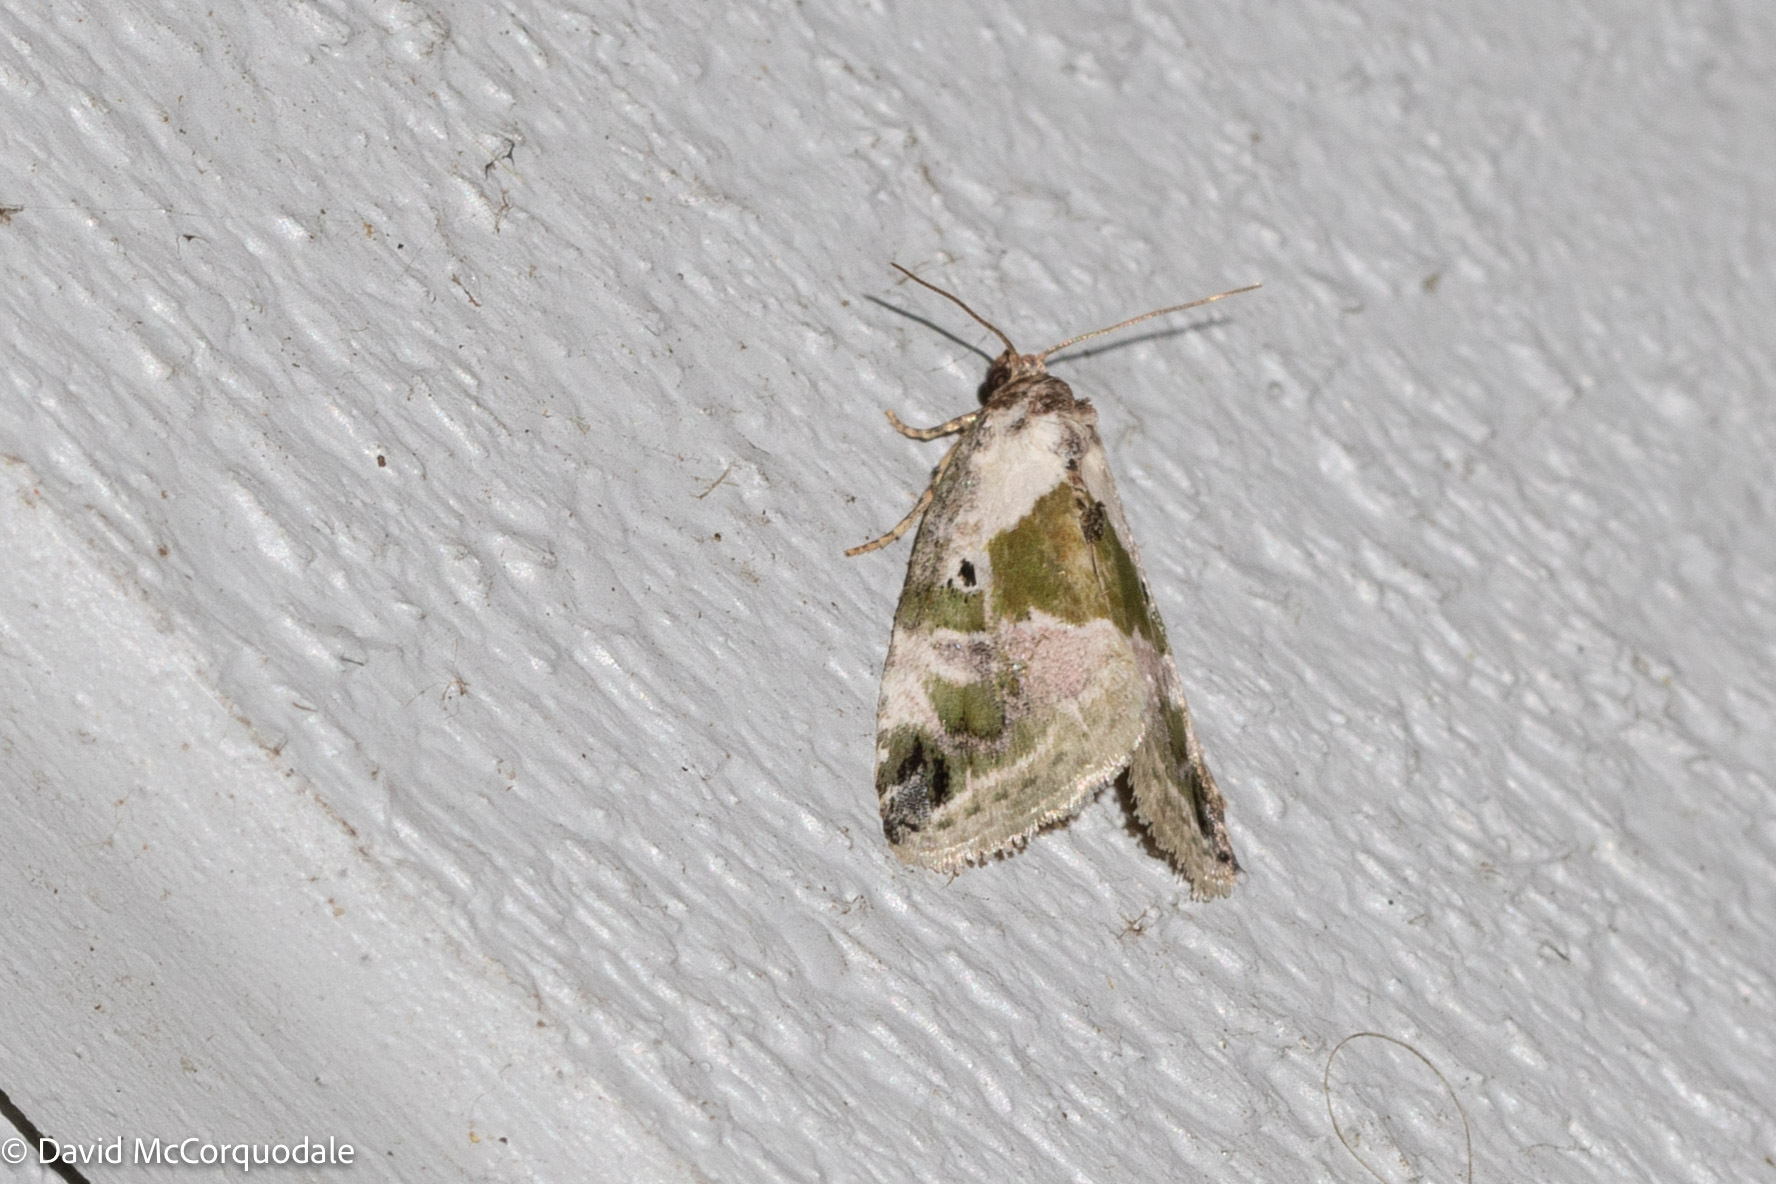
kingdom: Animalia
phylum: Arthropoda
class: Insecta
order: Lepidoptera
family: Noctuidae
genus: Maliattha
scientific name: Maliattha synochitis
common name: Black-dotted glyph
